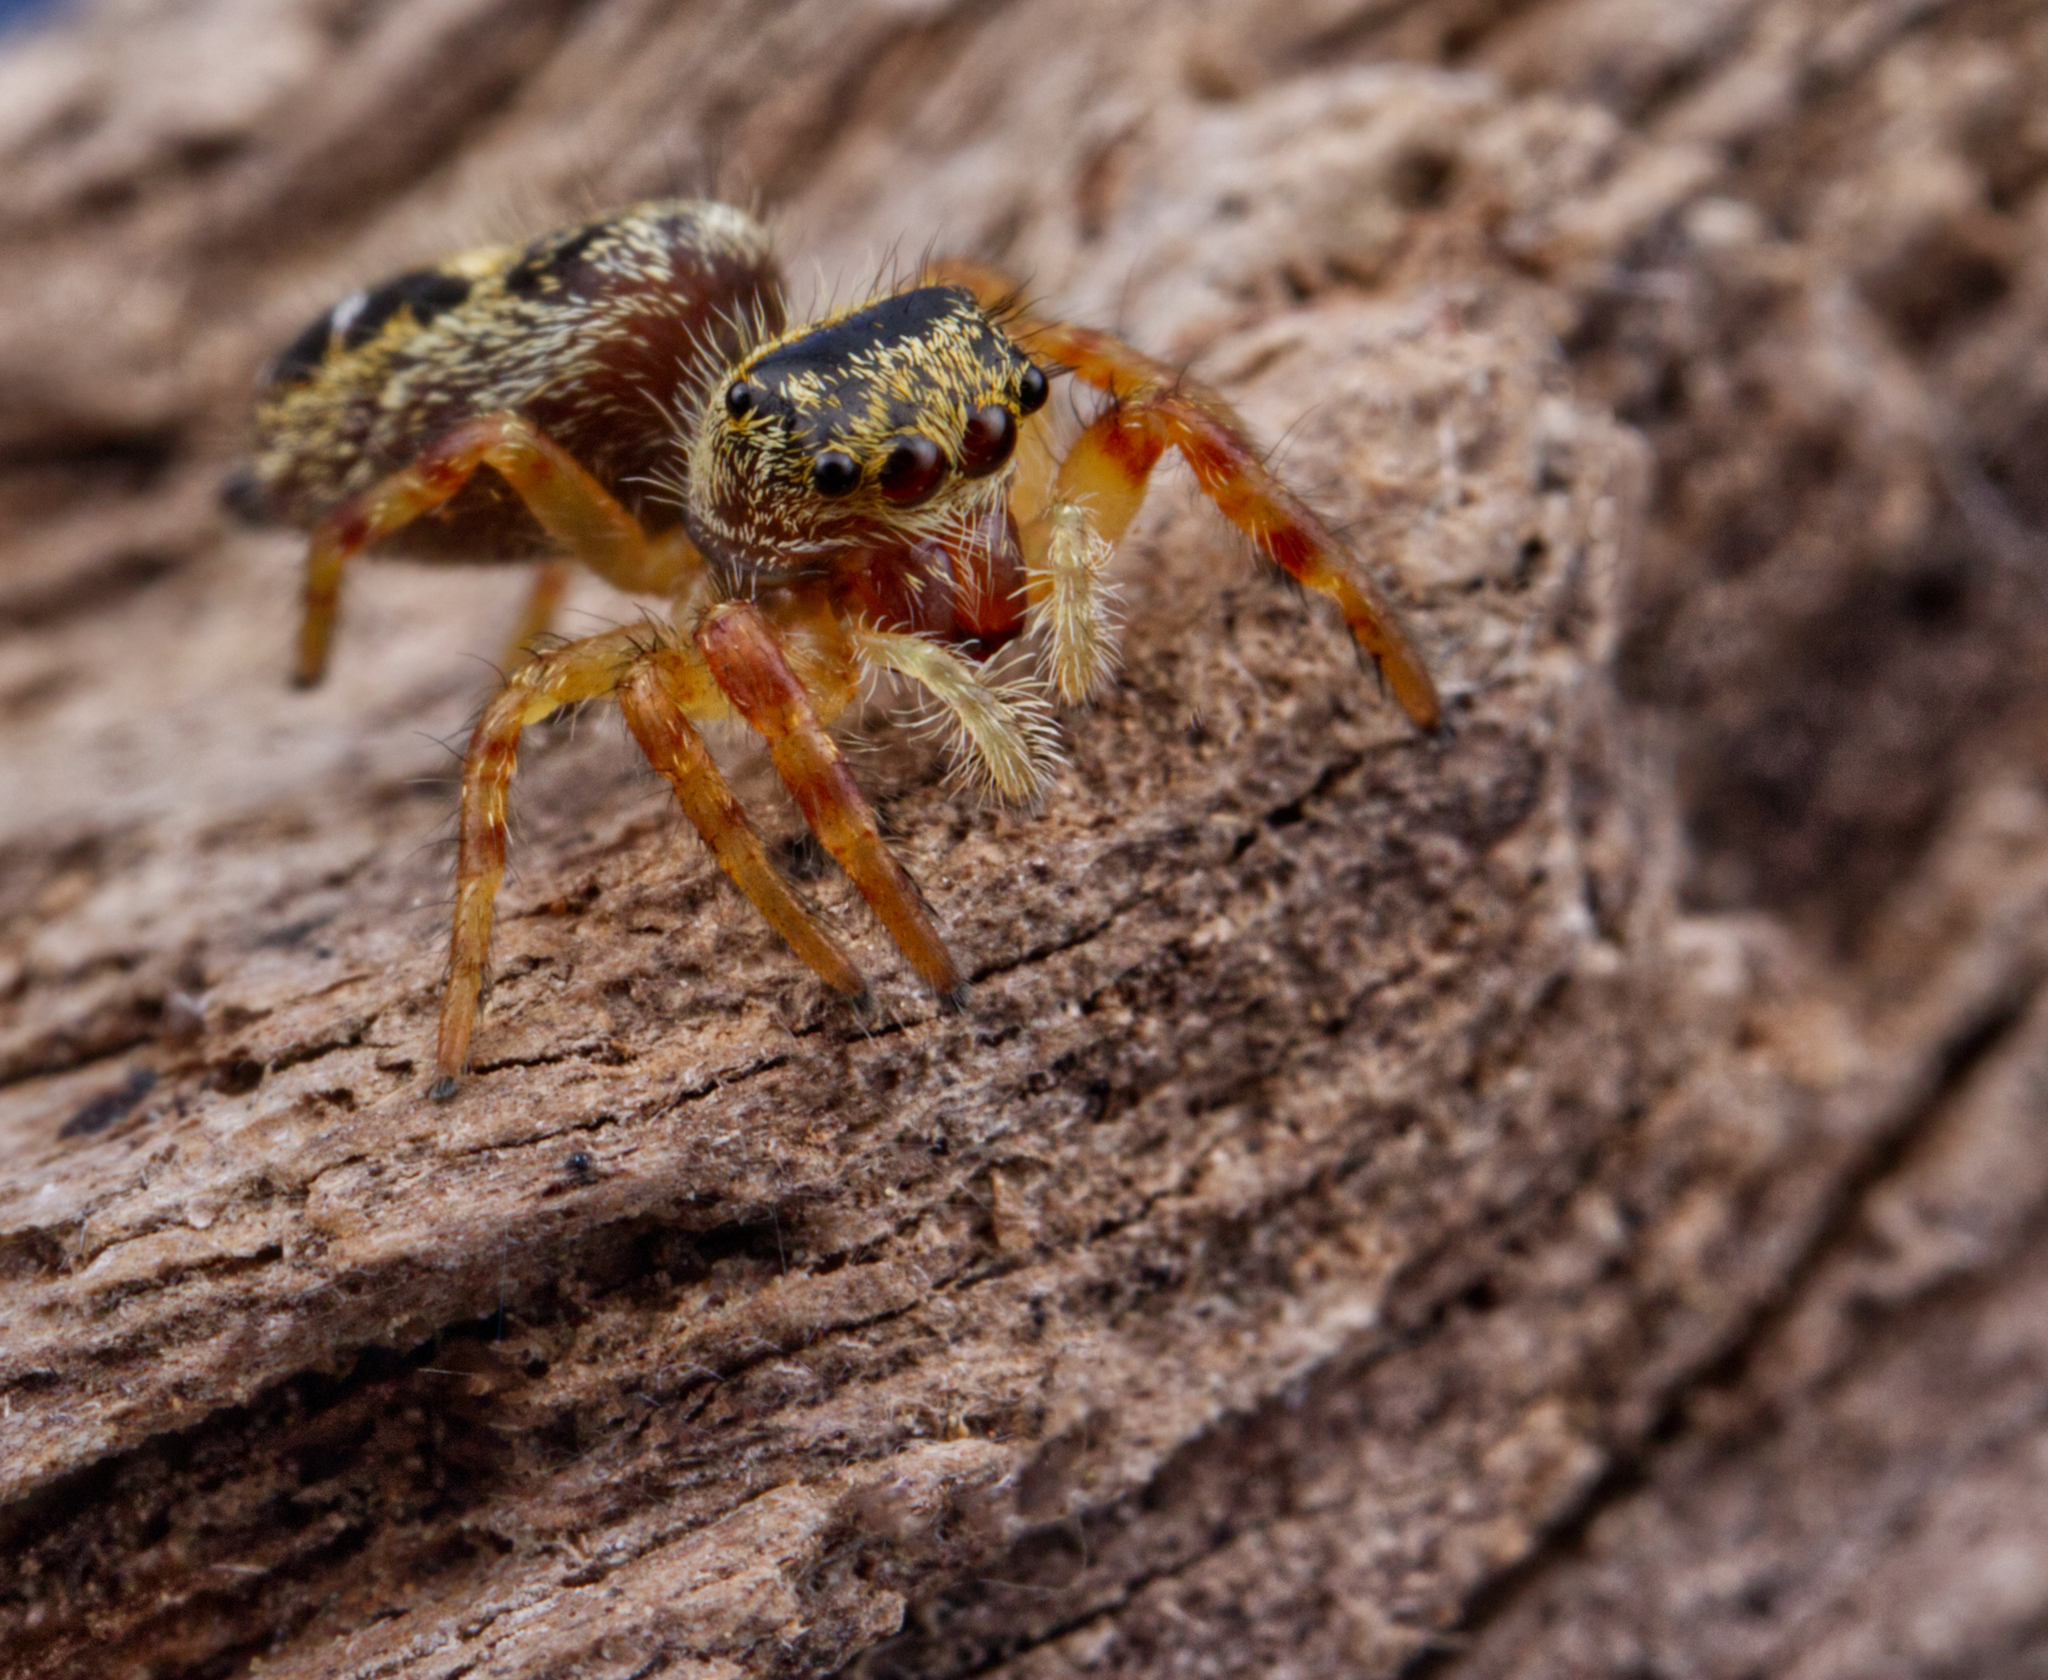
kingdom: Animalia
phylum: Arthropoda
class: Arachnida
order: Araneae
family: Salticidae
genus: Phidippus
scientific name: Phidippus princeps
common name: Grayish jumping spider
